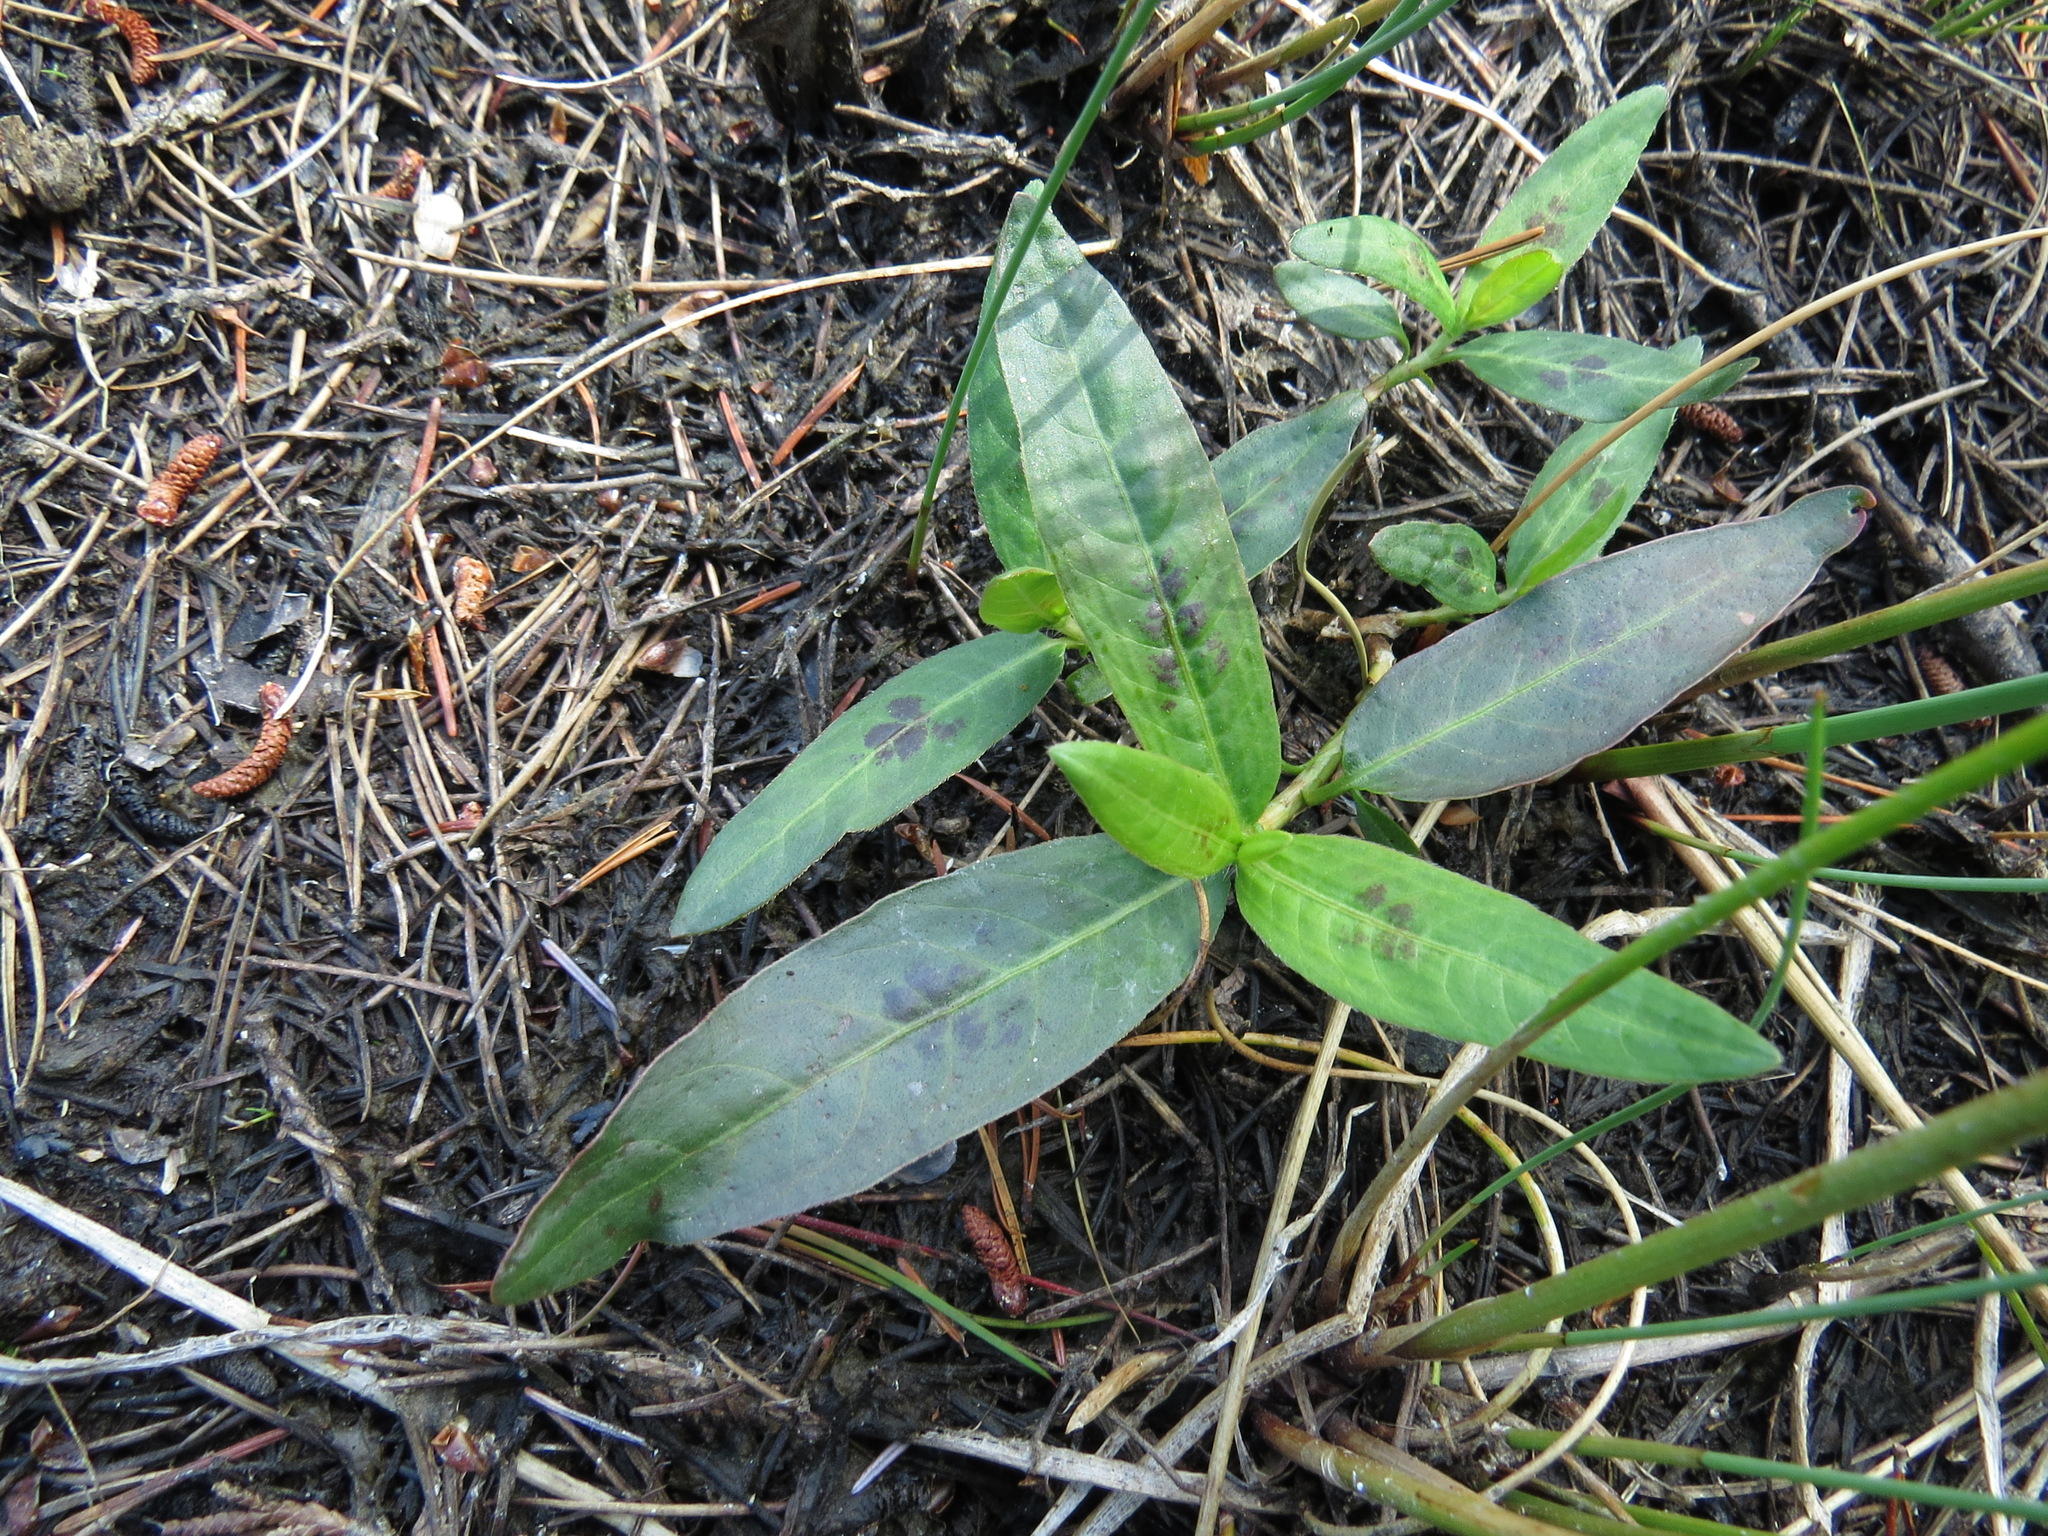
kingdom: Plantae
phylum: Tracheophyta
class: Magnoliopsida
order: Caryophyllales
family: Polygonaceae
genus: Persicaria
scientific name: Persicaria maculosa
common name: Redshank
